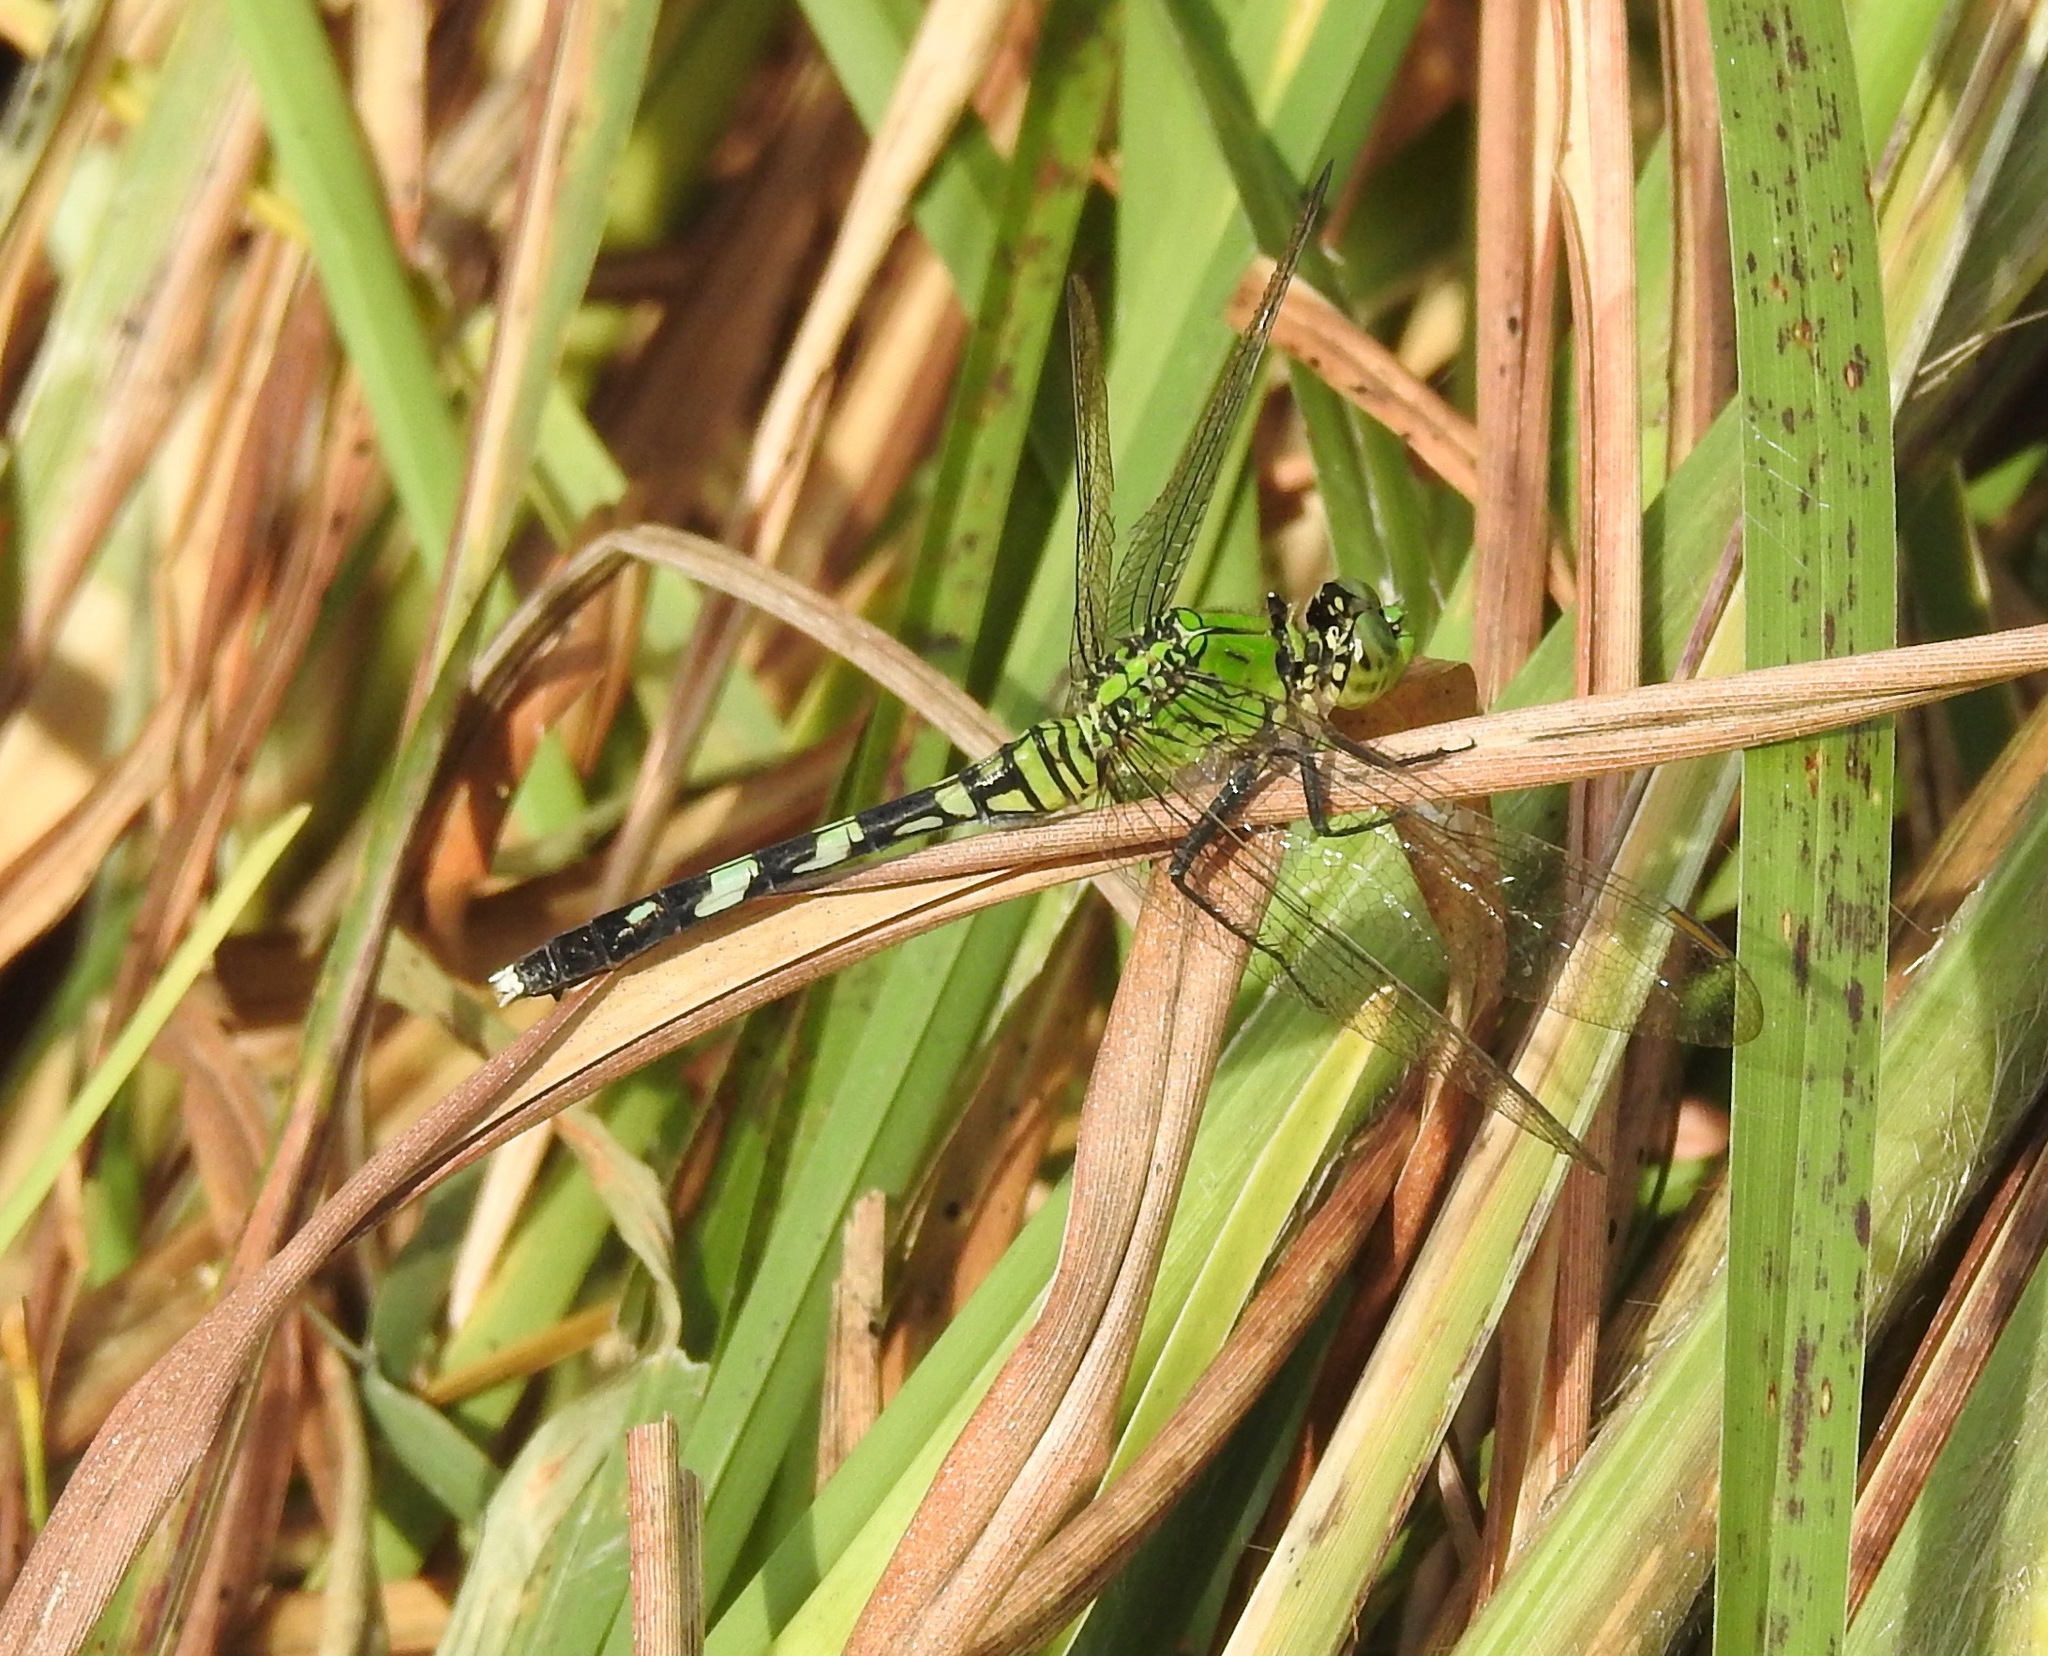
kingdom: Animalia
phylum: Arthropoda
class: Insecta
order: Odonata
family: Libellulidae
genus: Erythemis
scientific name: Erythemis simplicicollis
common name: Eastern pondhawk
